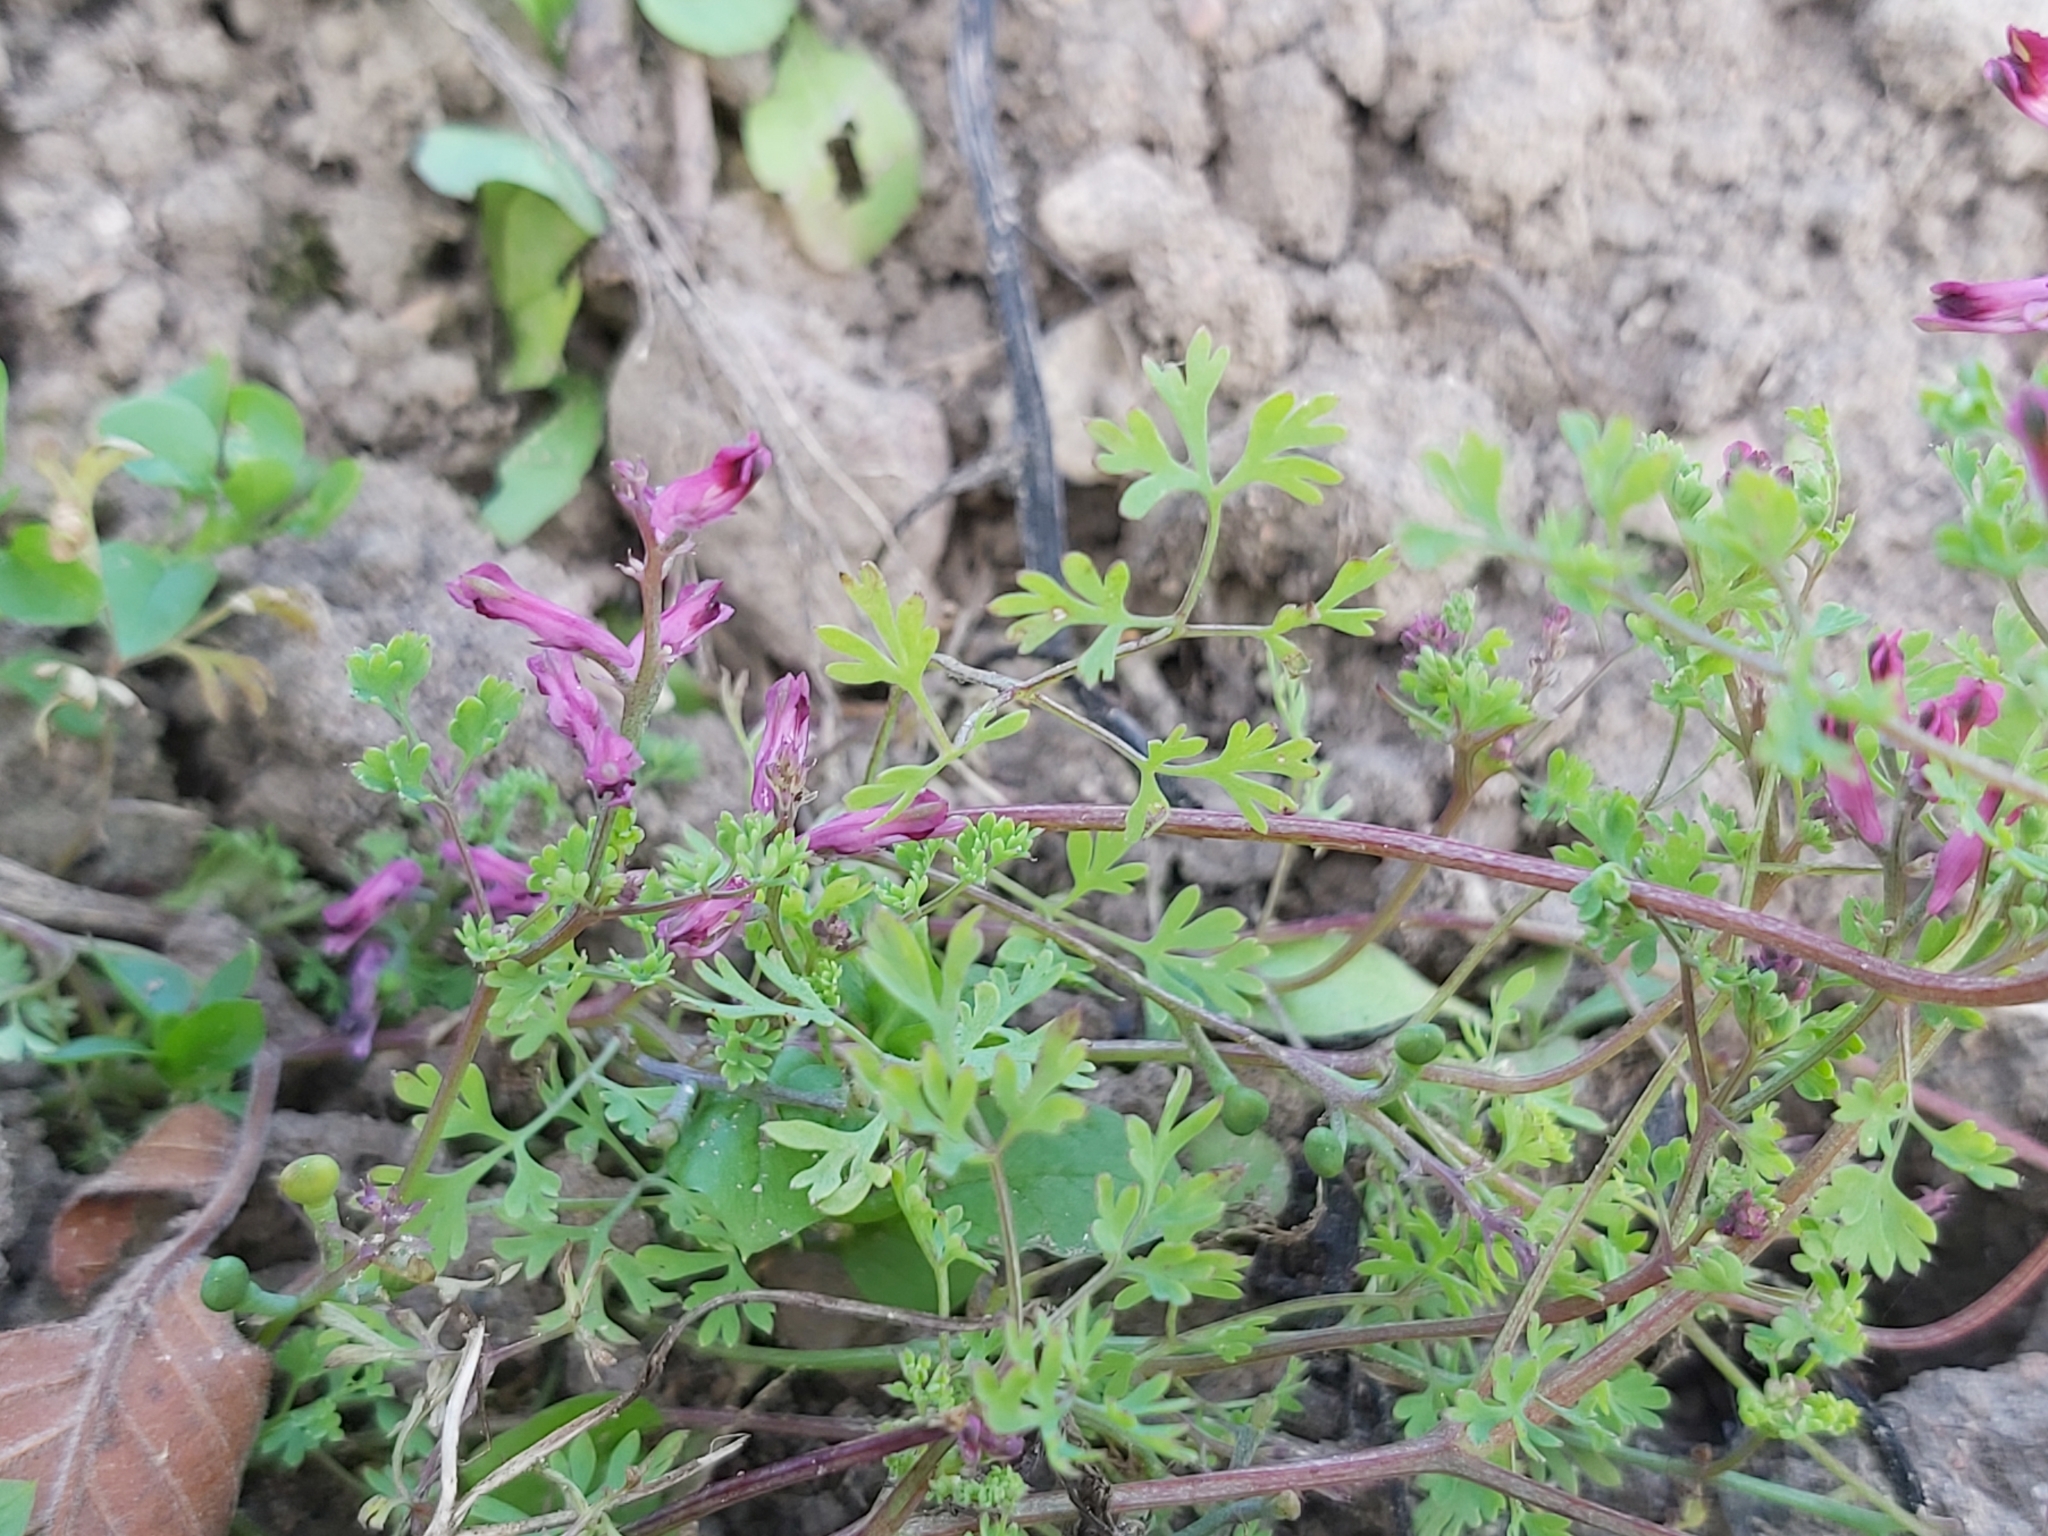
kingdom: Plantae
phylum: Tracheophyta
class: Magnoliopsida
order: Ranunculales
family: Papaveraceae
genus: Fumaria
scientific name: Fumaria officinalis
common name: Common fumitory
